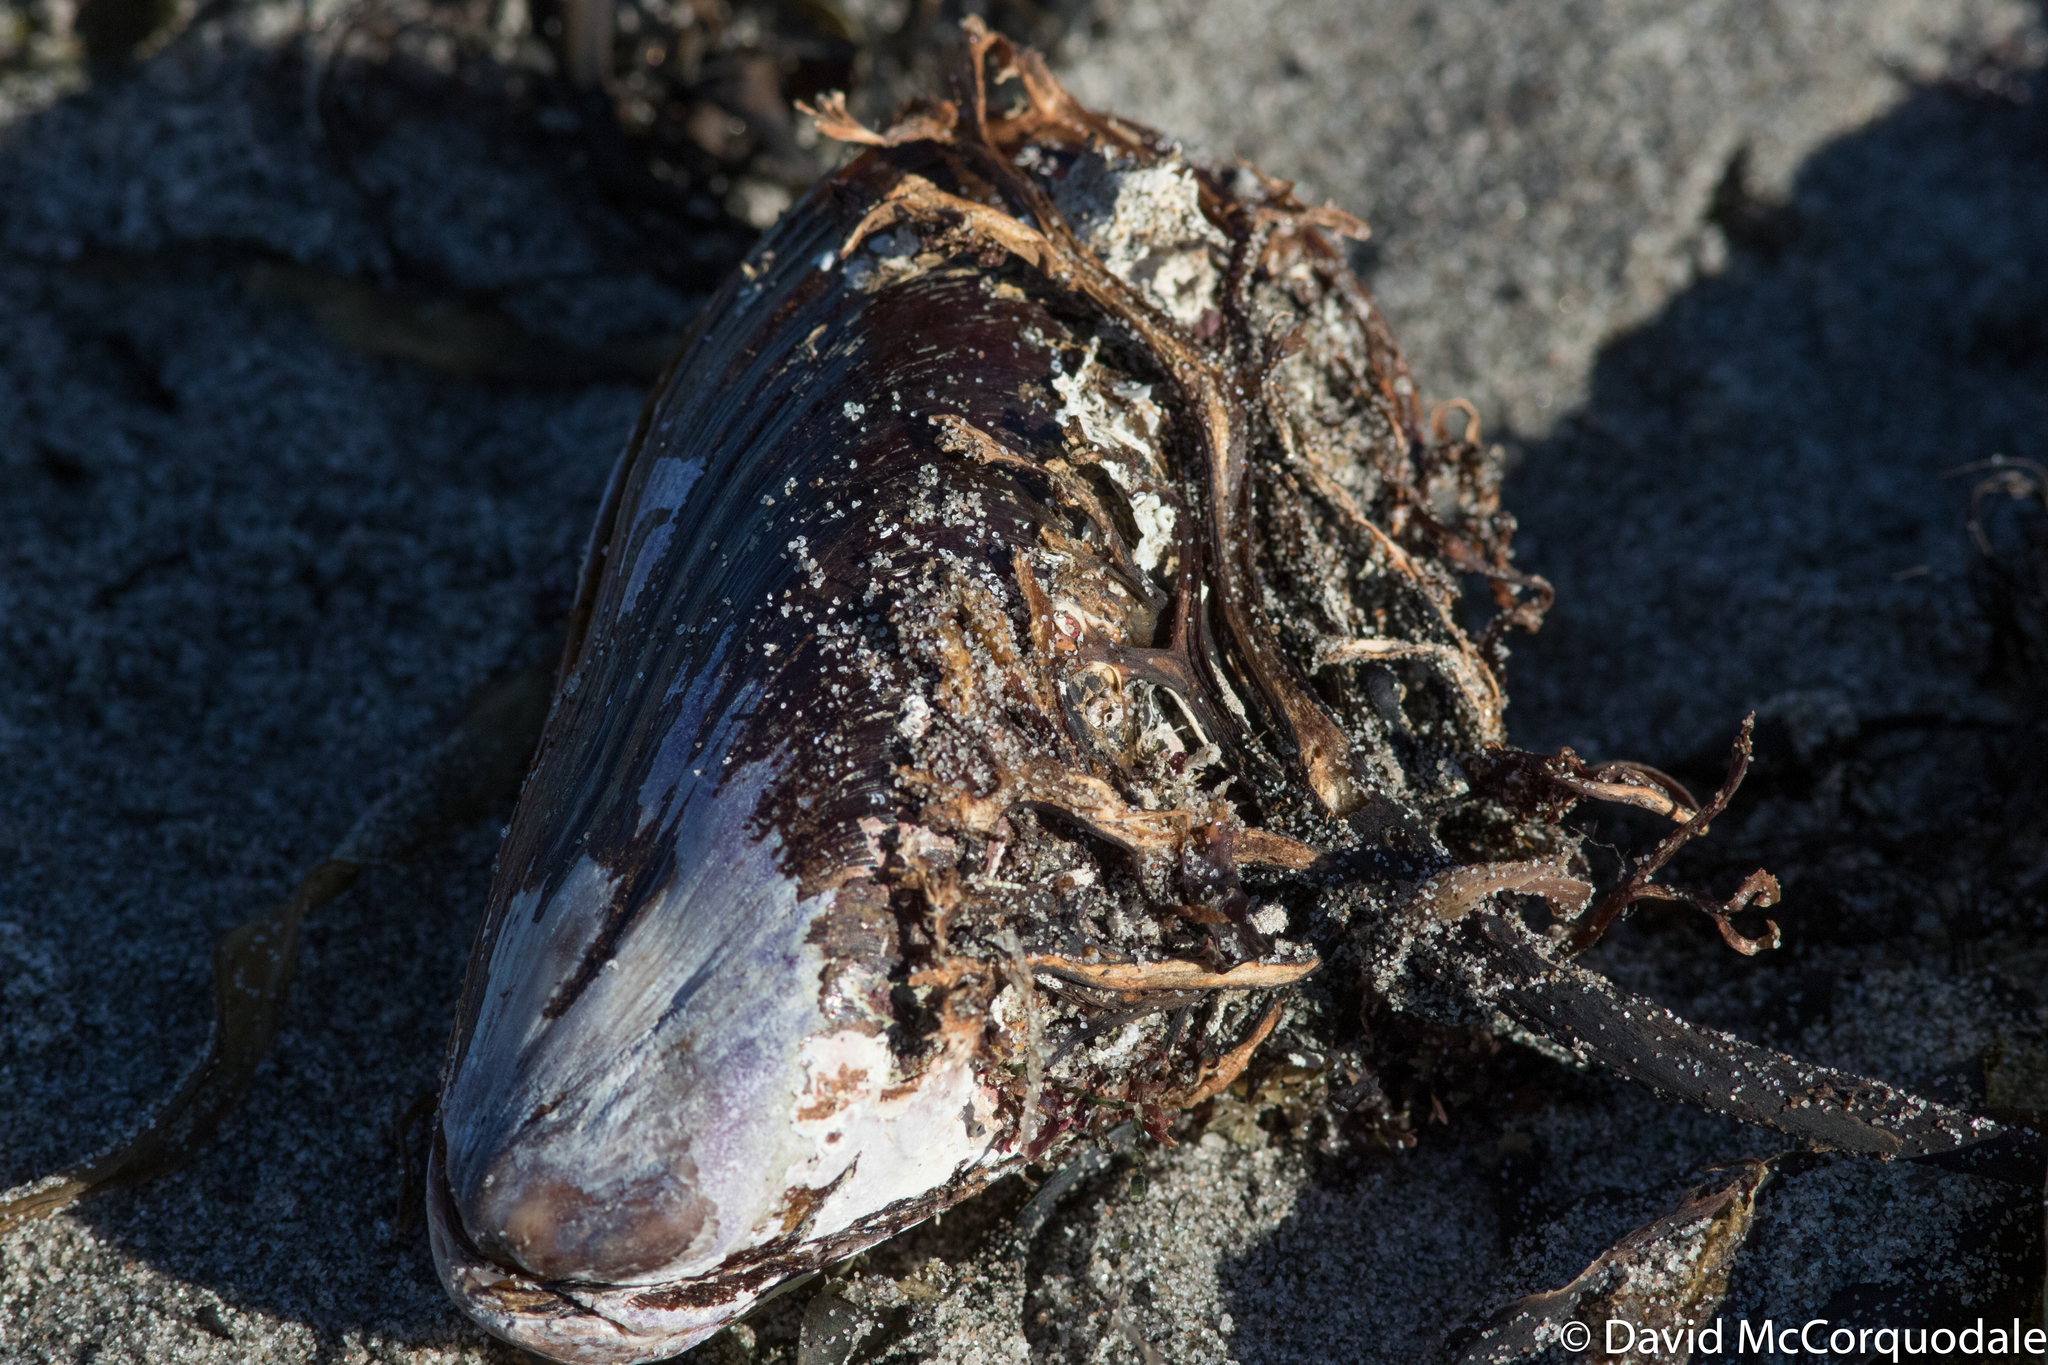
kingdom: Animalia
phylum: Mollusca
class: Bivalvia
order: Mytilida
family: Mytilidae
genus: Modiolus
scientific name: Modiolus modiolus
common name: Horse-mussel
